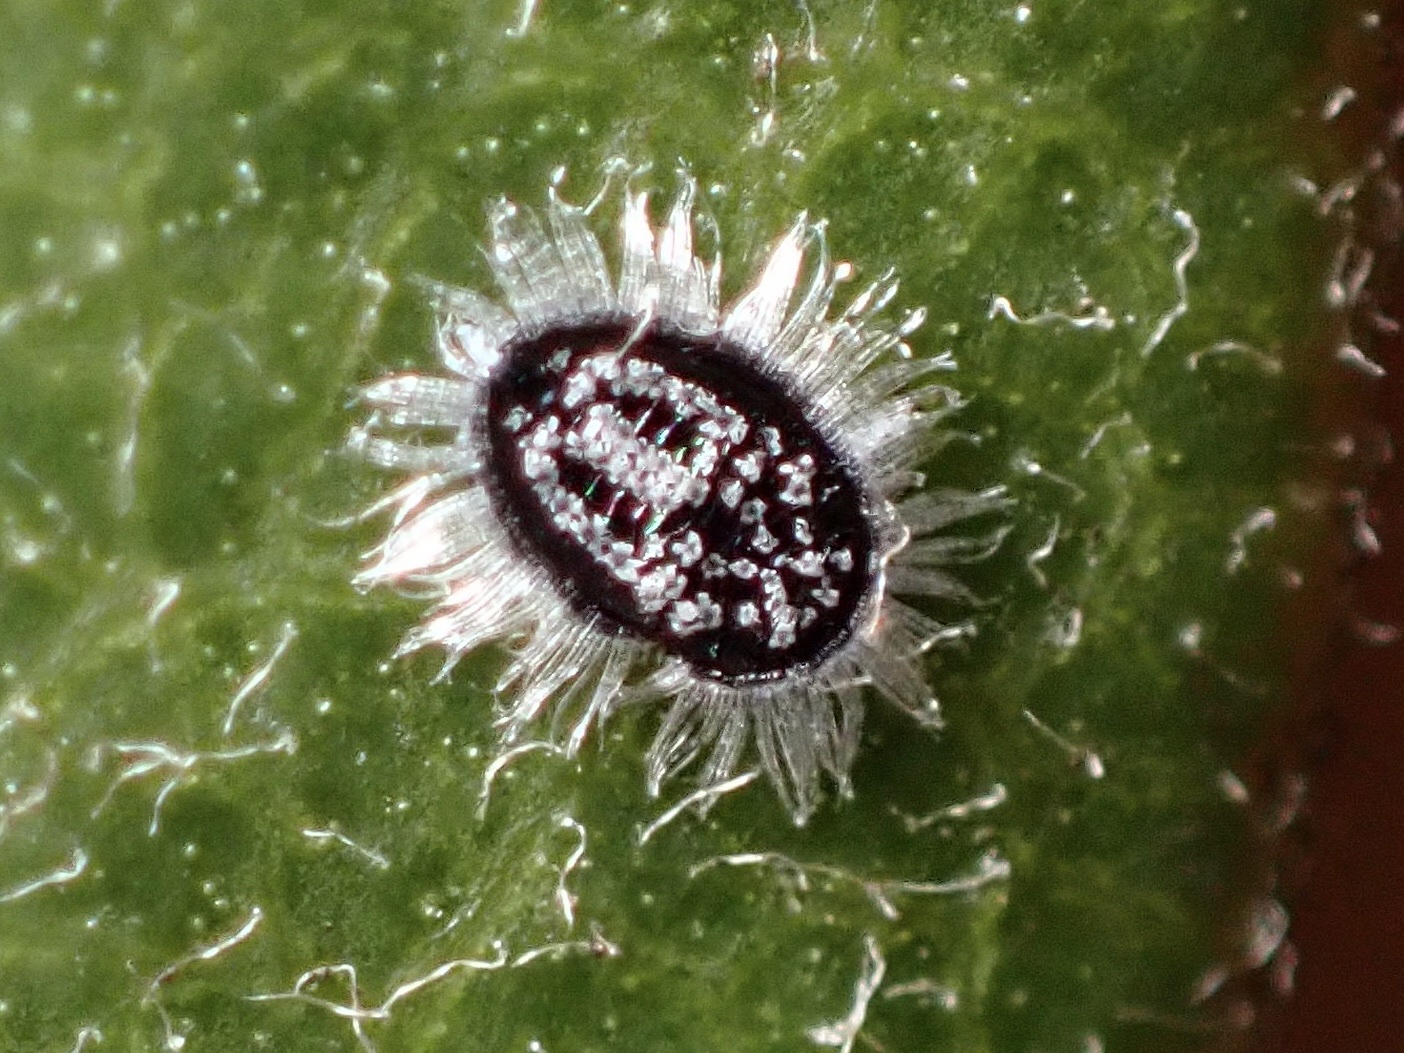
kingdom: Animalia
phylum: Arthropoda
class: Insecta
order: Hemiptera
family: Aleyrodidae
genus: Aleuroparadoxus
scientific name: Aleuroparadoxus arctostaphyli
